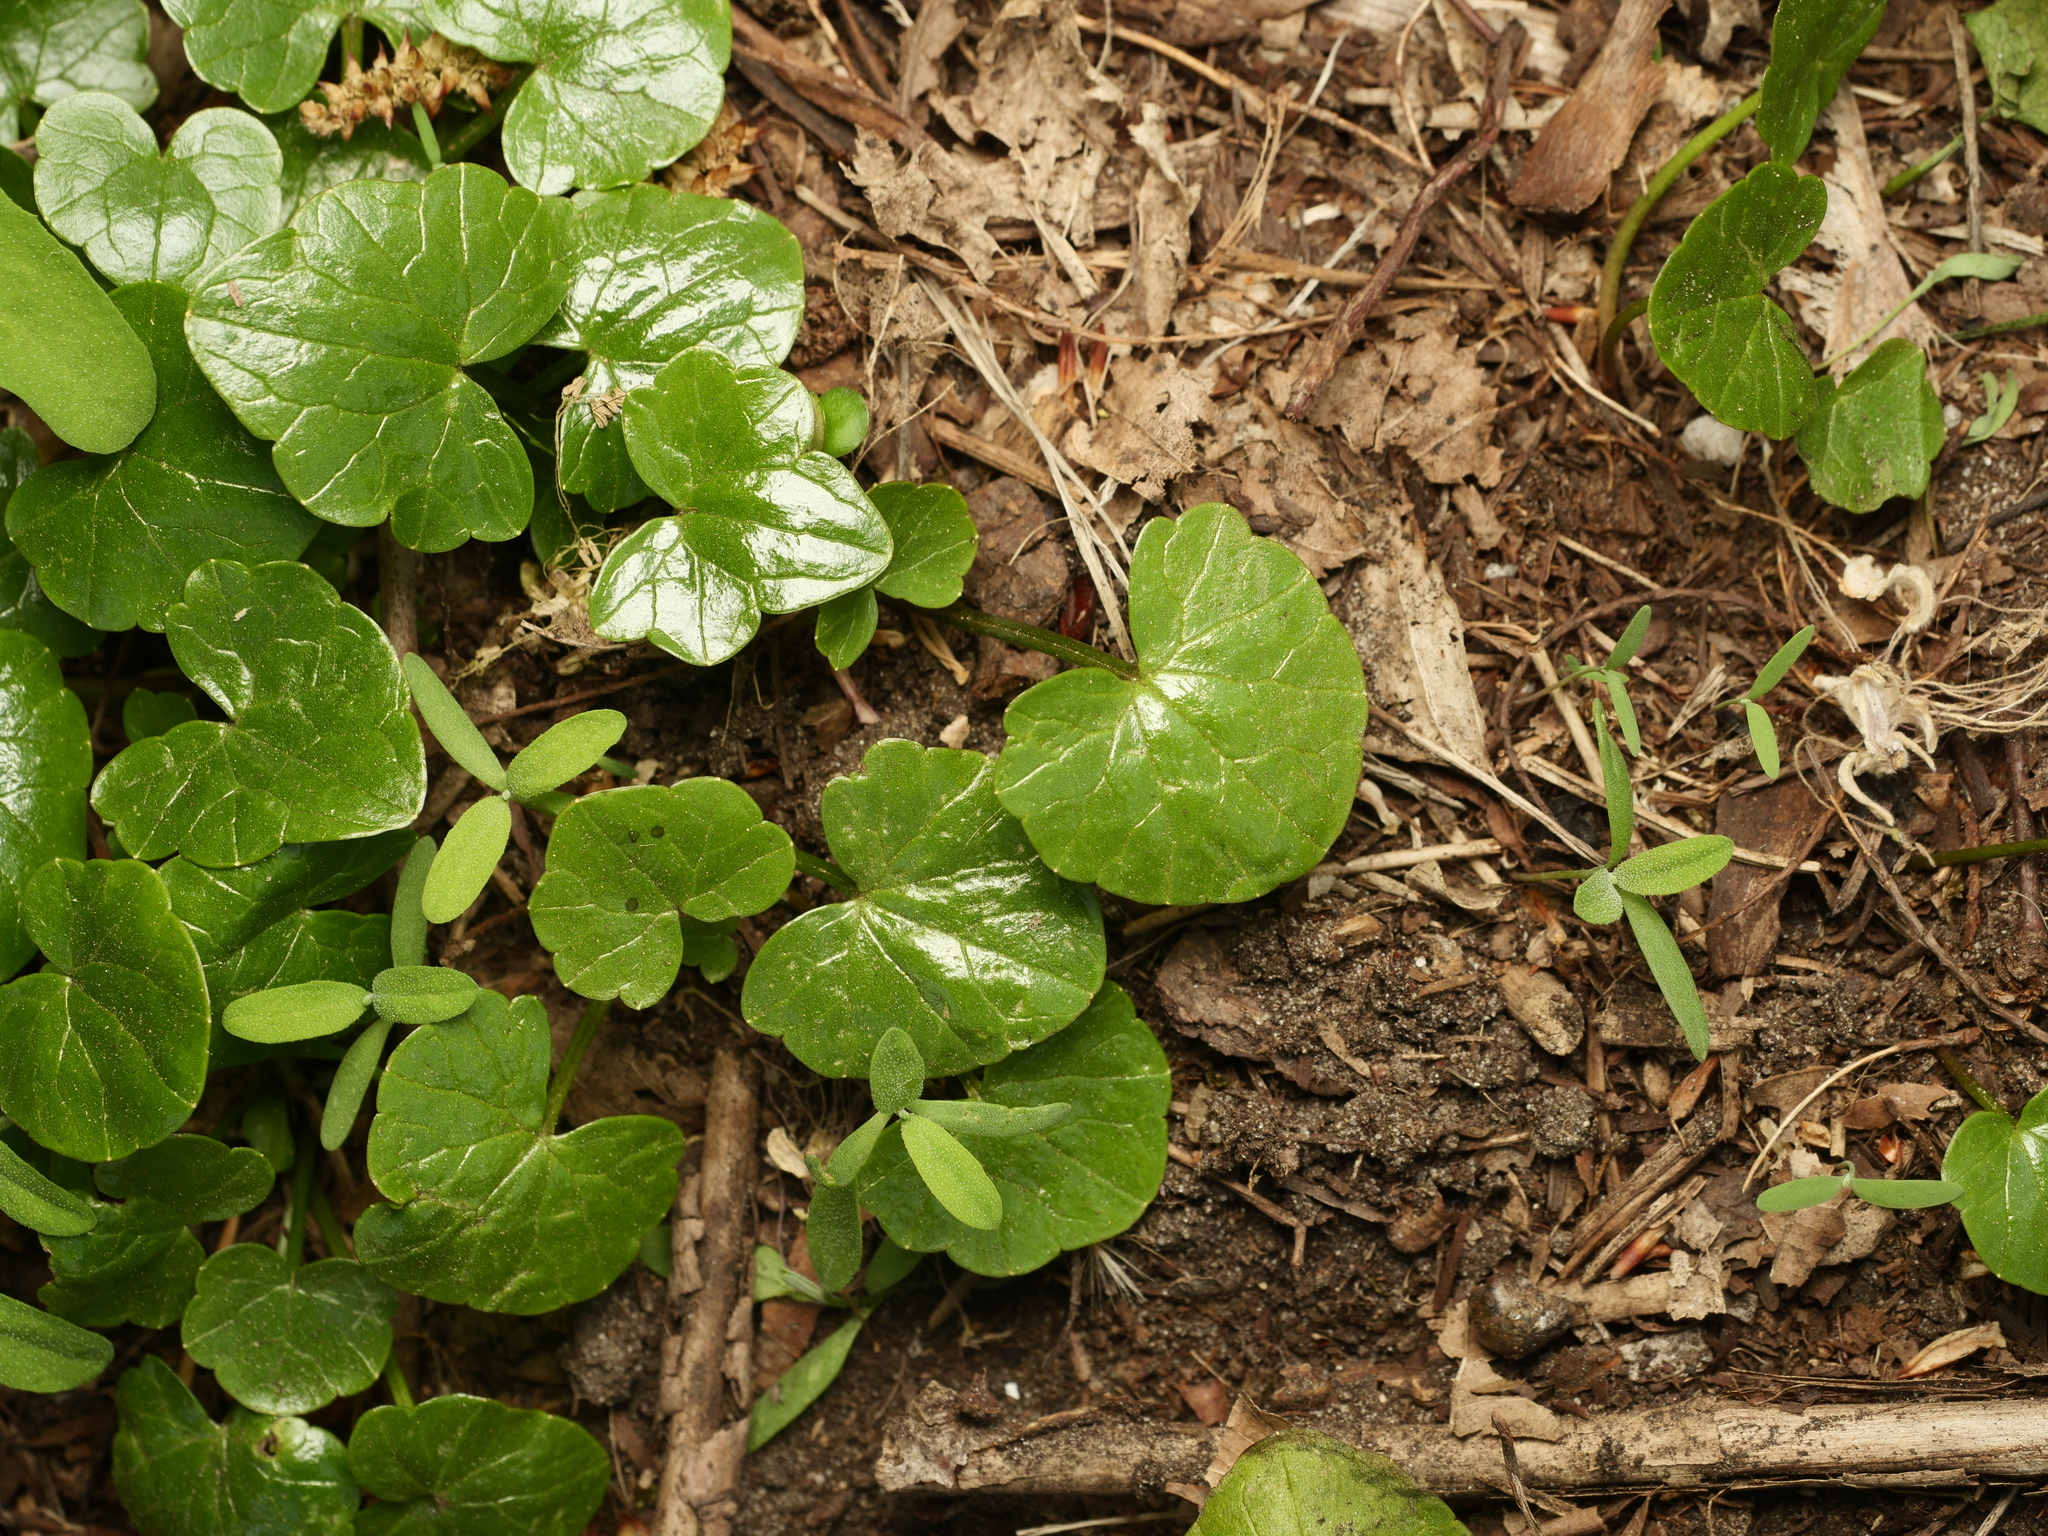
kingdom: Plantae
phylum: Tracheophyta
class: Magnoliopsida
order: Ranunculales
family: Ranunculaceae
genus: Ficaria
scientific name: Ficaria verna
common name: Lesser celandine
